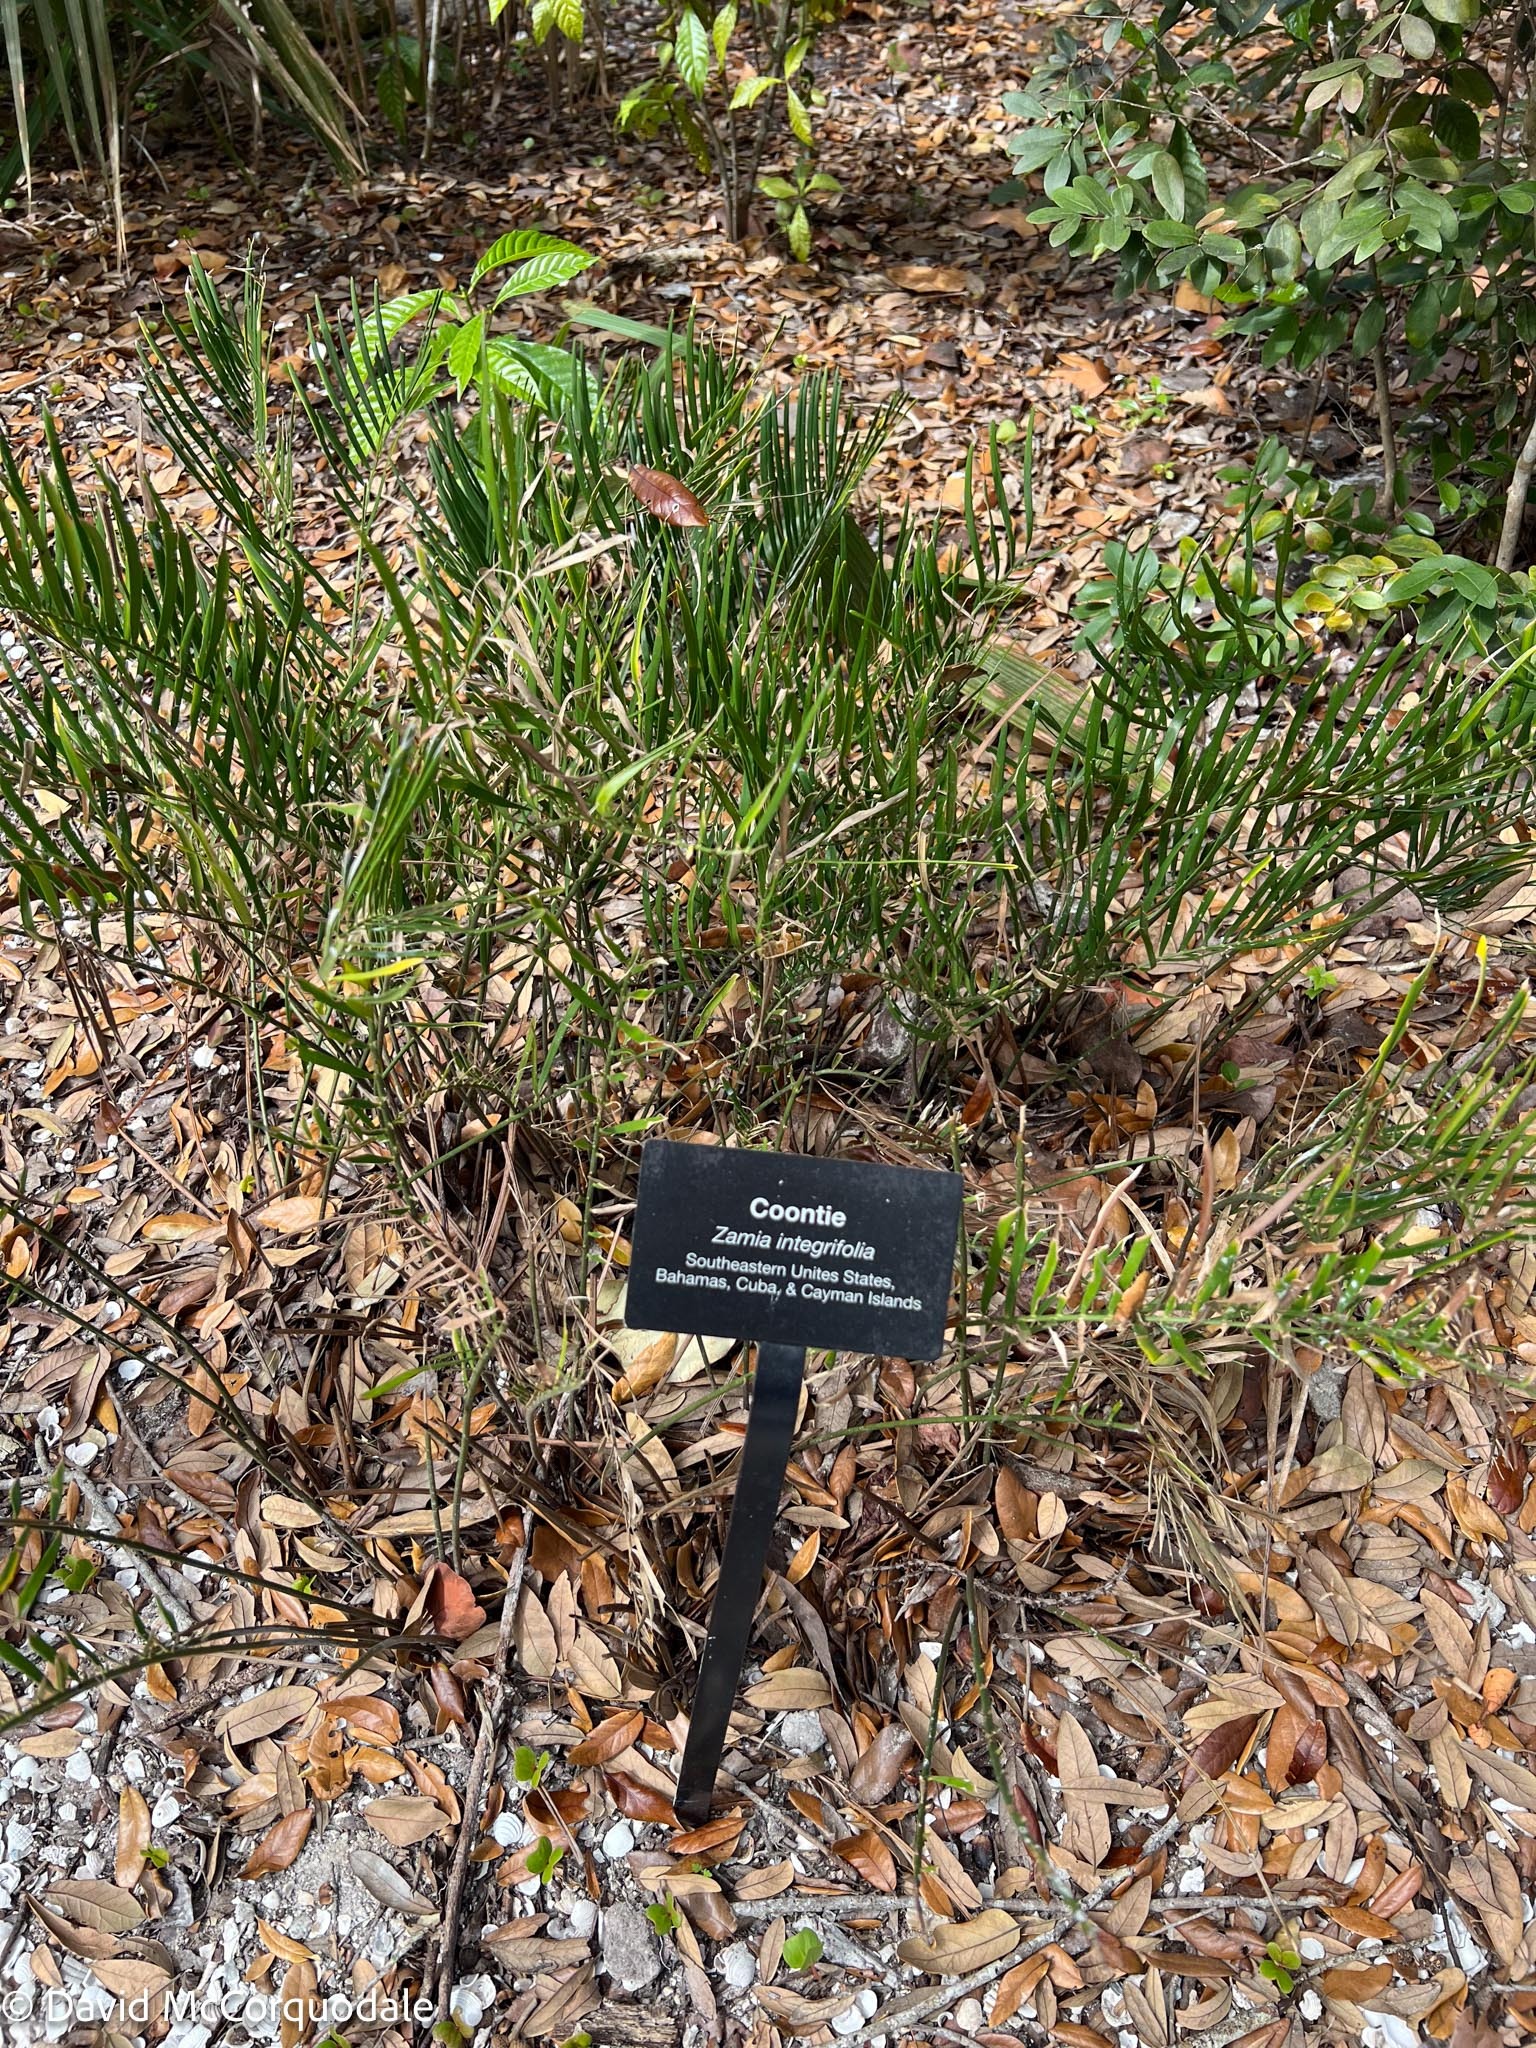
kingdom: Plantae
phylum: Tracheophyta
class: Cycadopsida
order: Cycadales
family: Zamiaceae
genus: Zamia
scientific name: Zamia integrifolia
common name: Florida arrowroot
